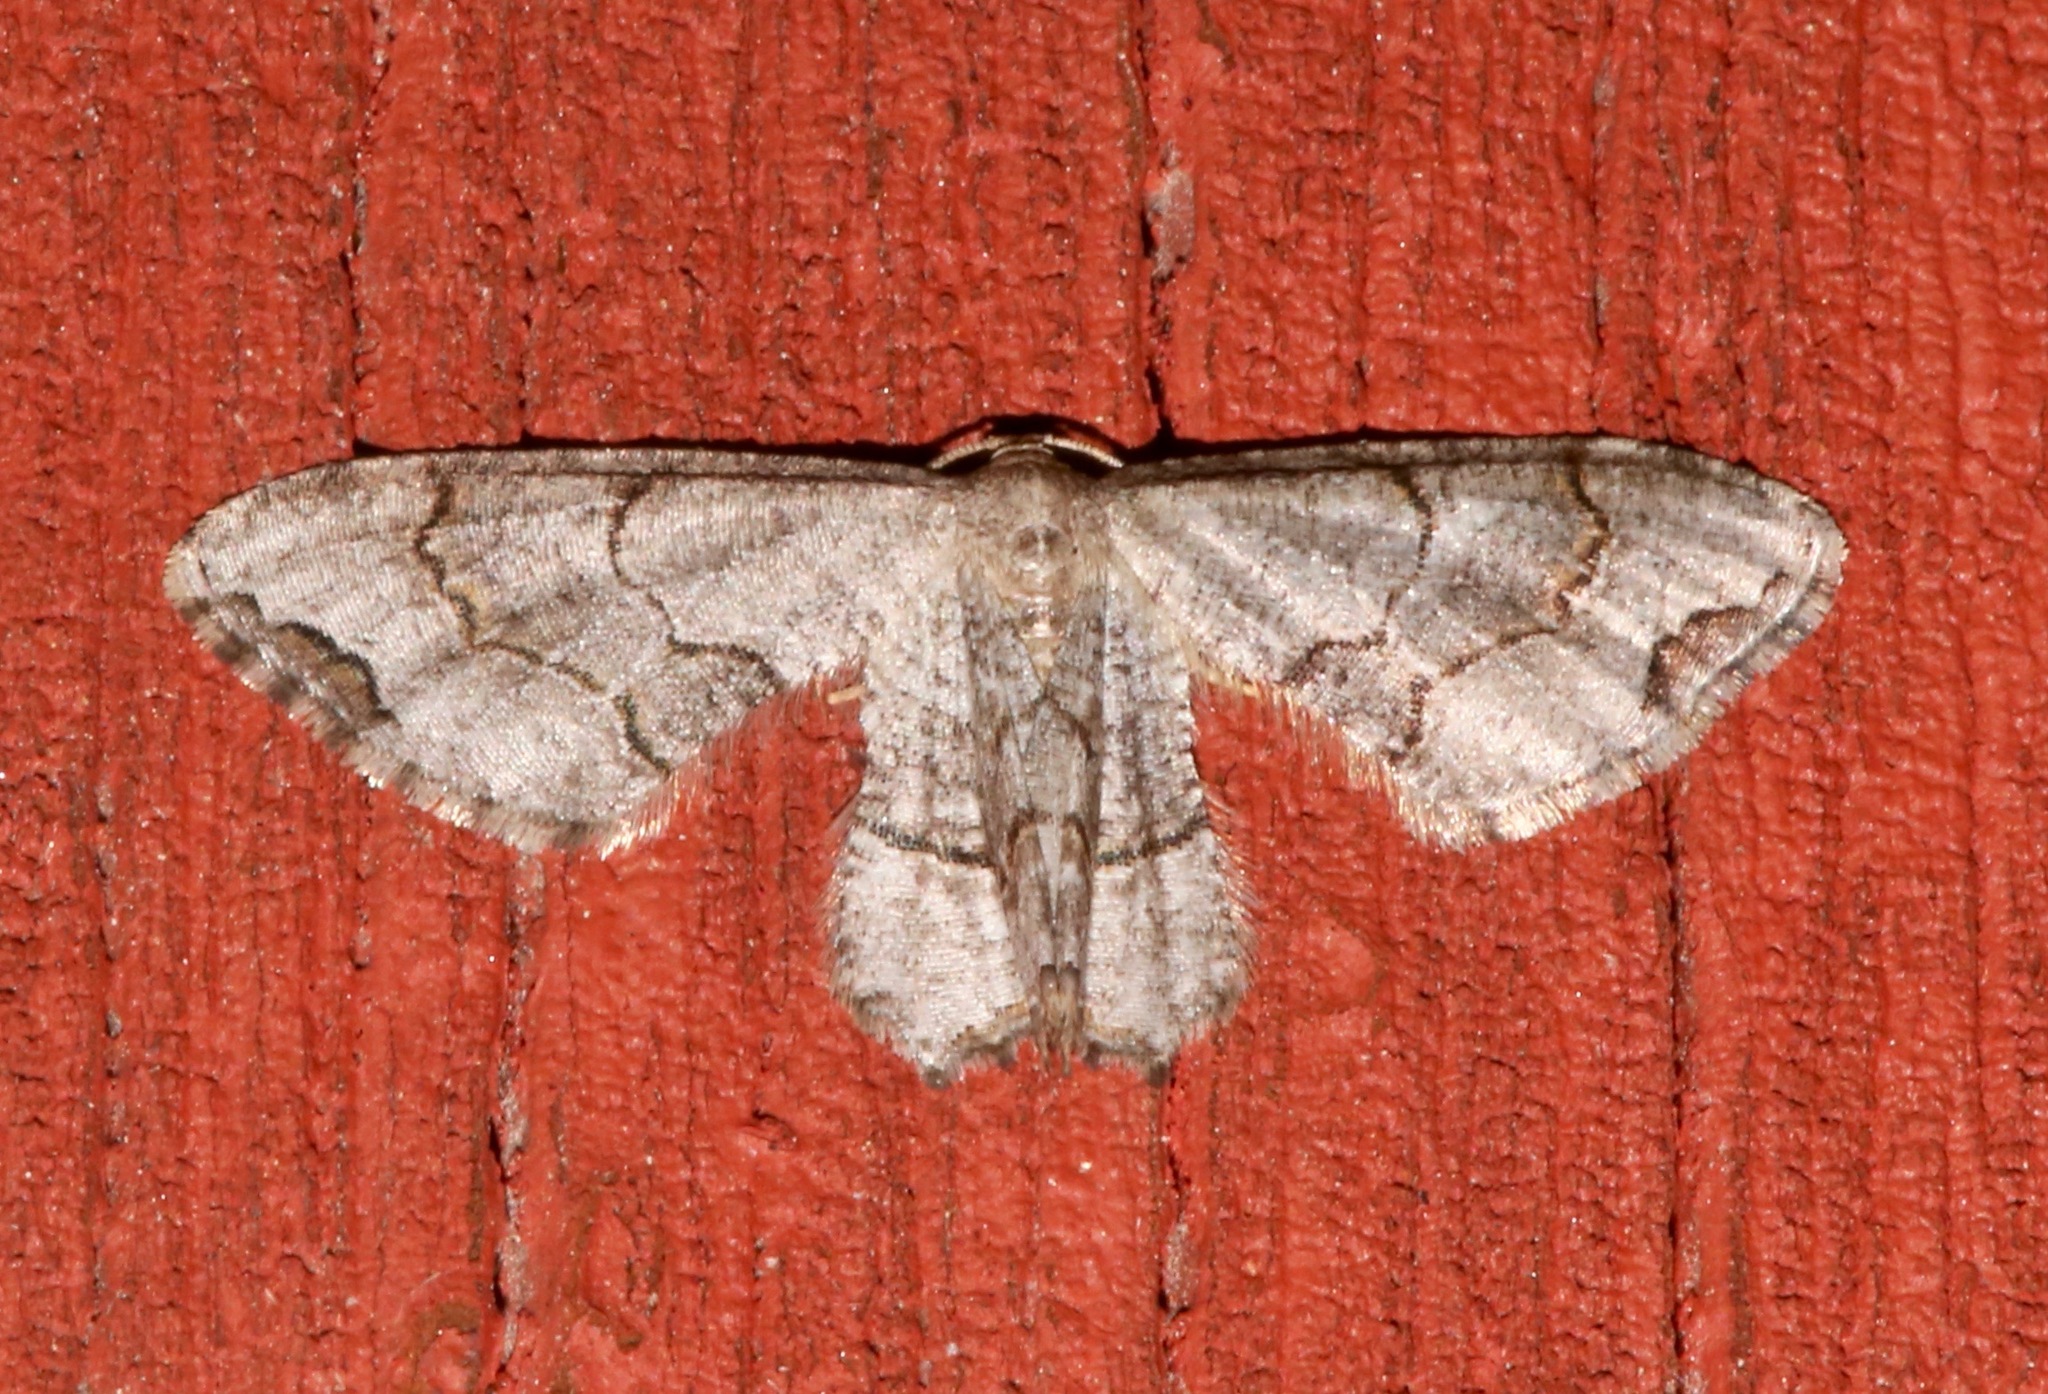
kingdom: Animalia
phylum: Arthropoda
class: Insecta
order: Lepidoptera
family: Uraniidae
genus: Epiplema
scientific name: Epiplema Callizzia amorata
